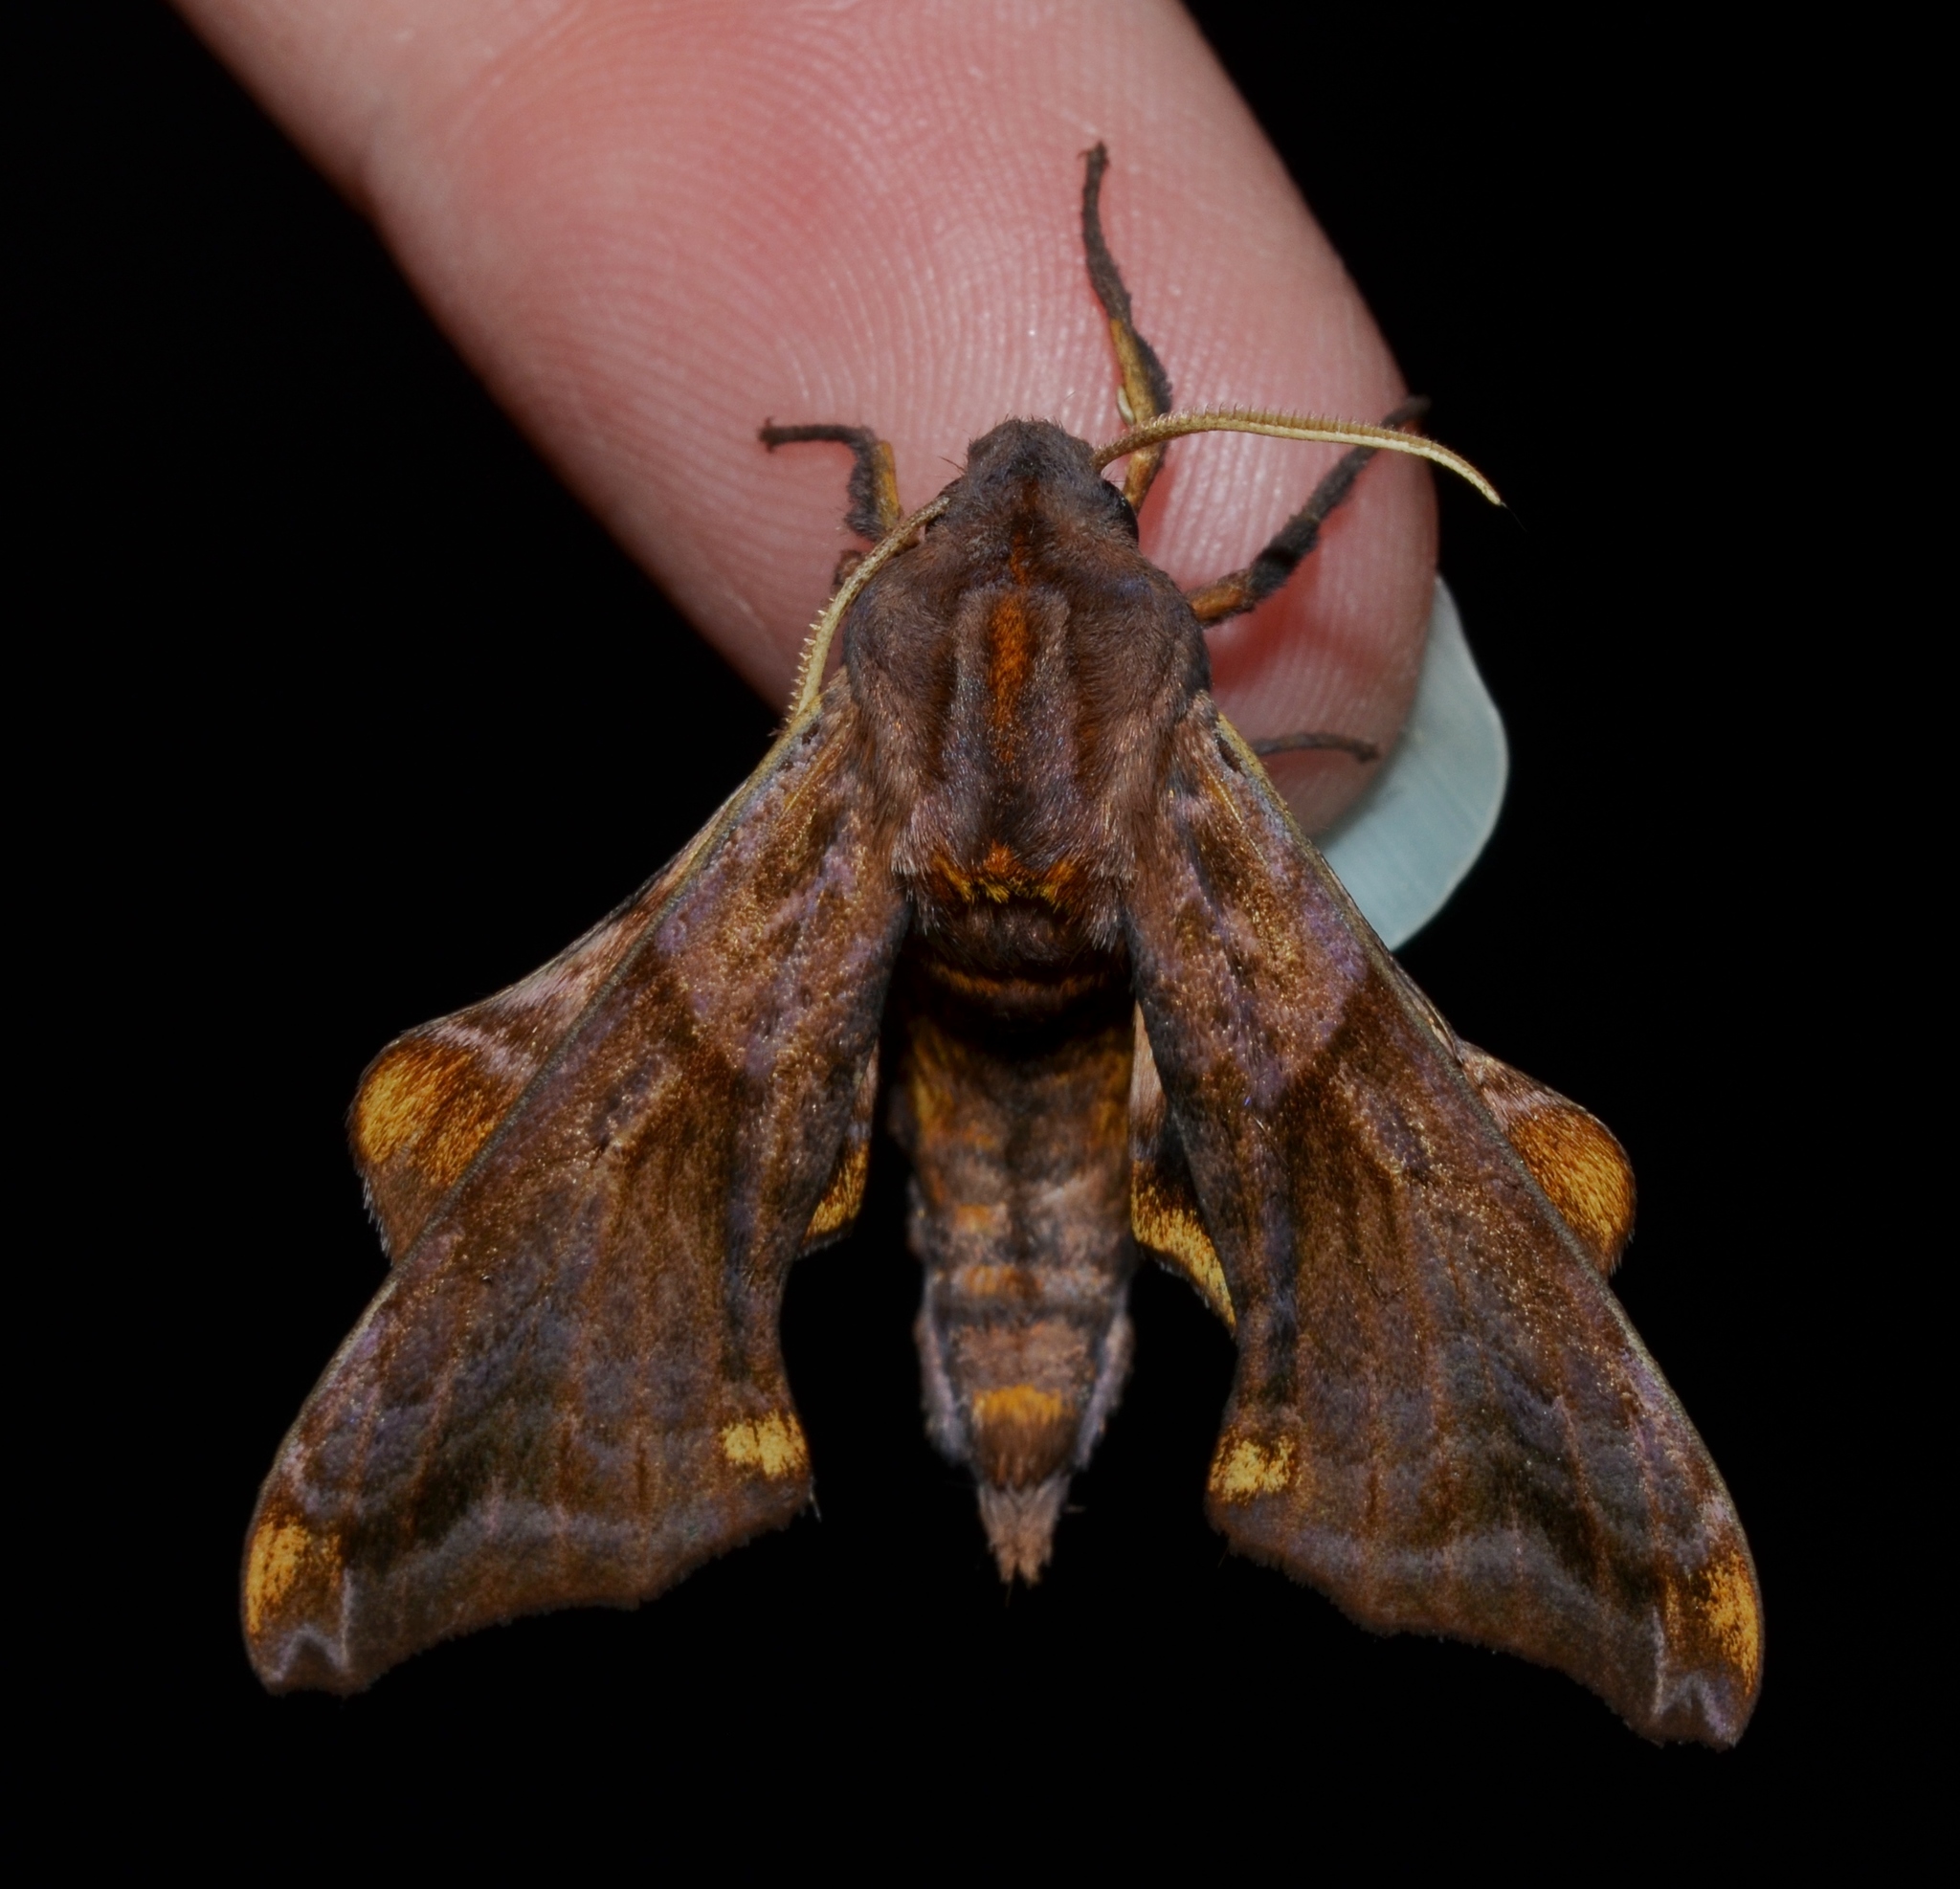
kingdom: Animalia
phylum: Arthropoda
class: Insecta
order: Lepidoptera
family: Sphingidae
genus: Paonias
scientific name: Paonias myops
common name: Small-eyed sphinx
